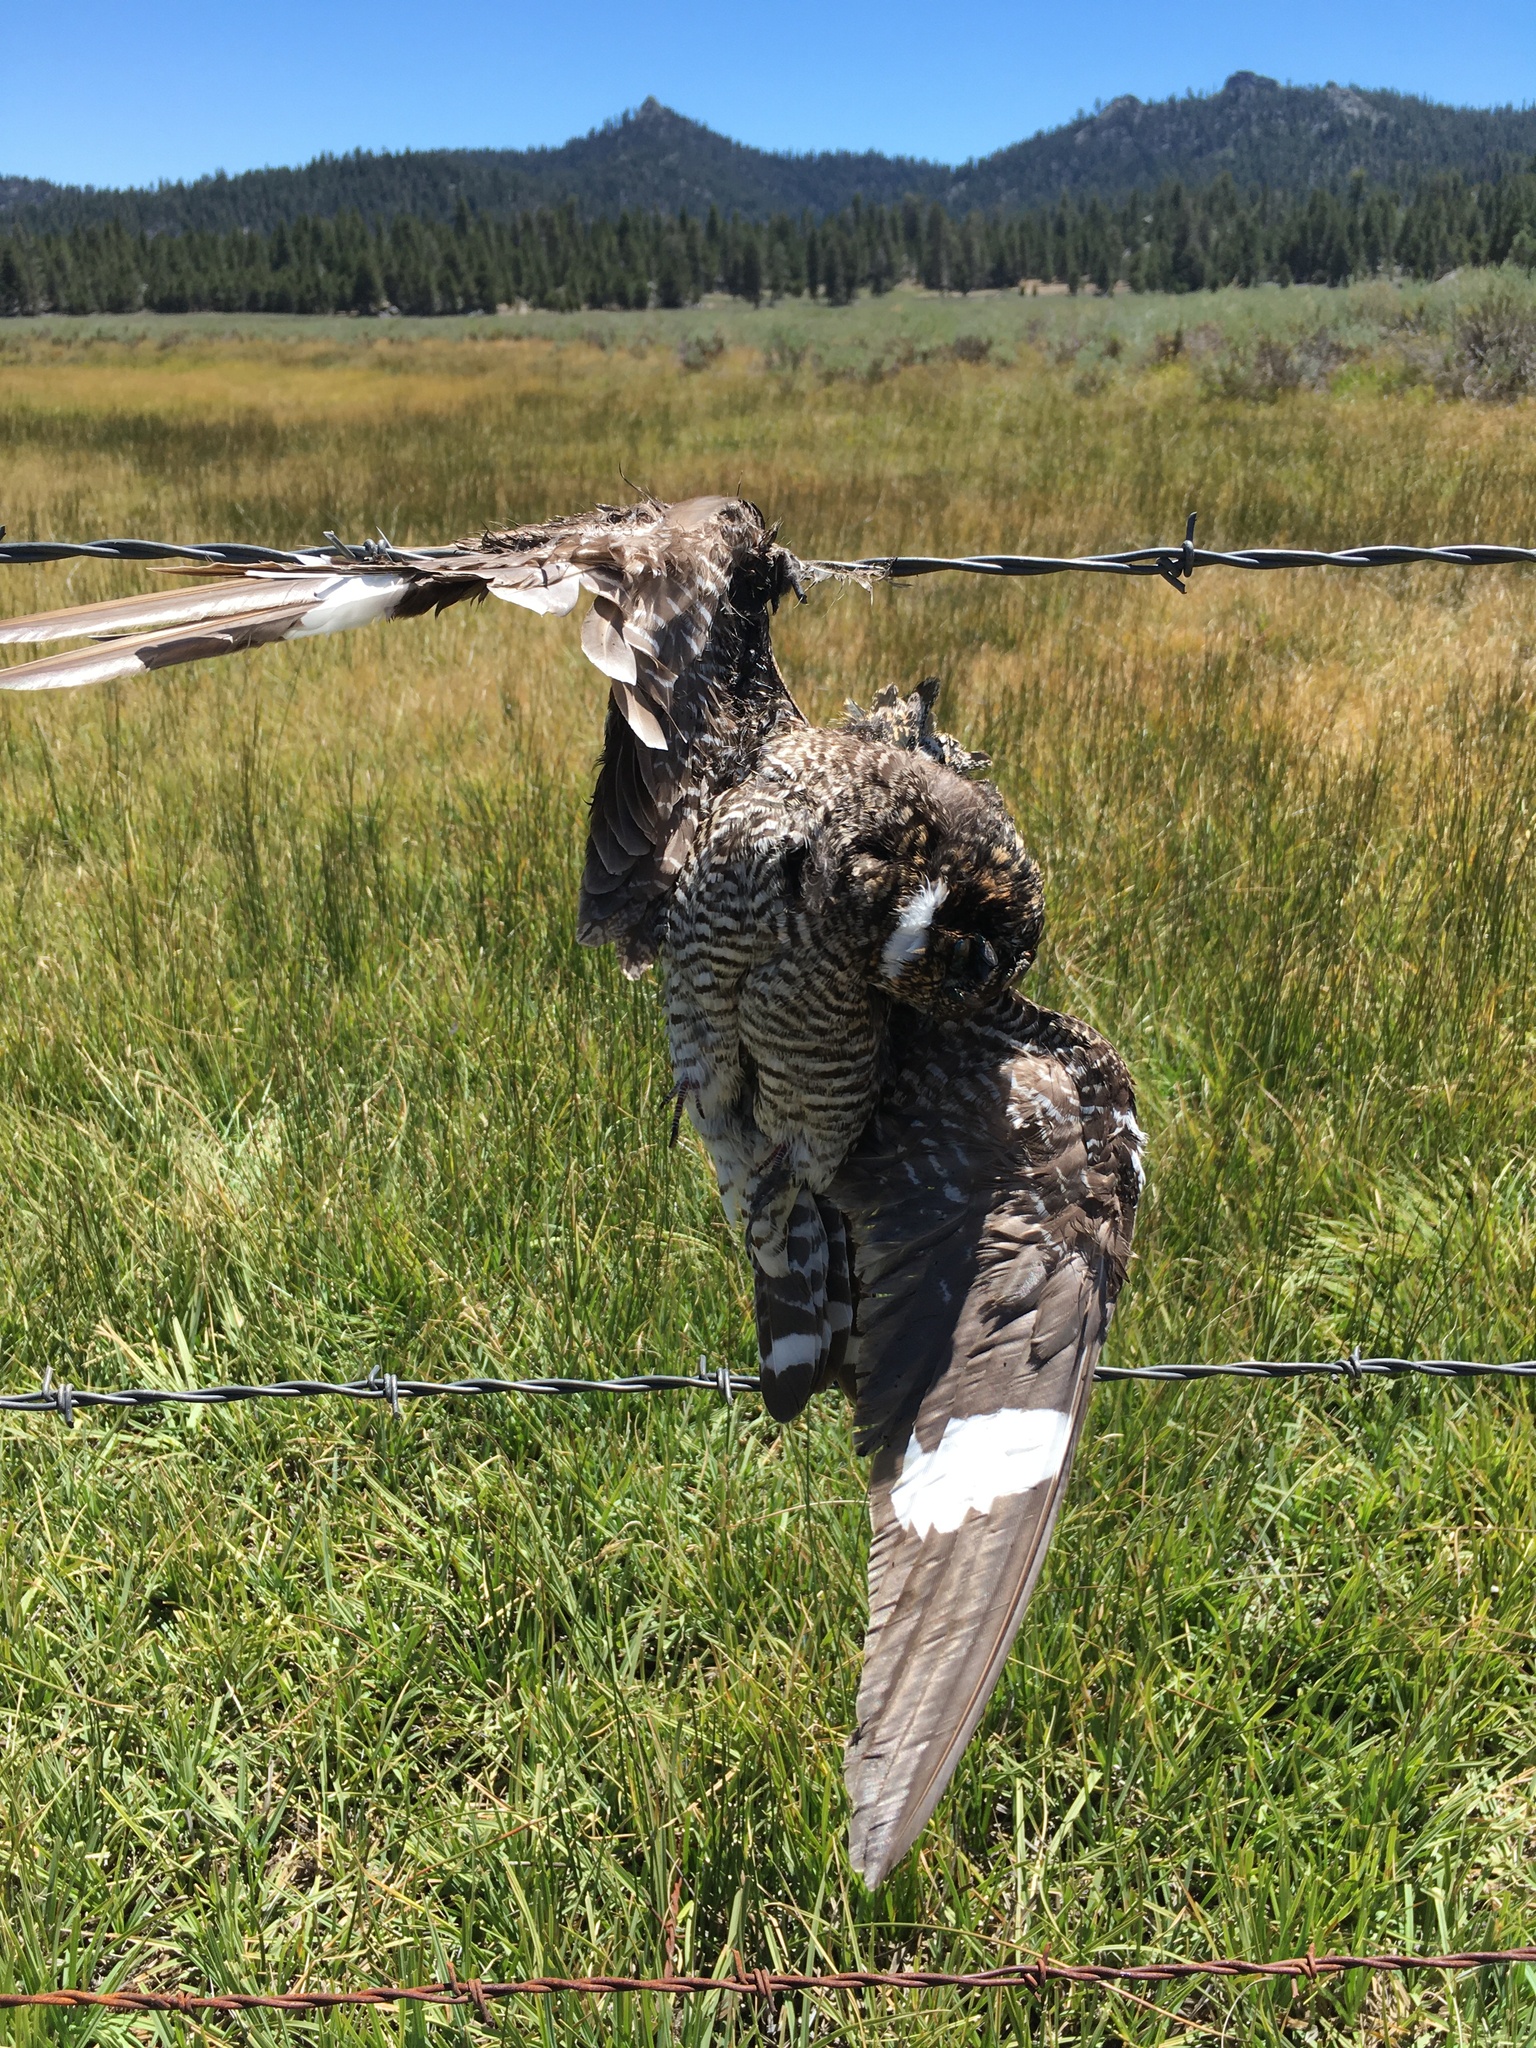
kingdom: Animalia
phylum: Chordata
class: Aves
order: Caprimulgiformes
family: Caprimulgidae
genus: Chordeiles
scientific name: Chordeiles minor
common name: Common nighthawk
